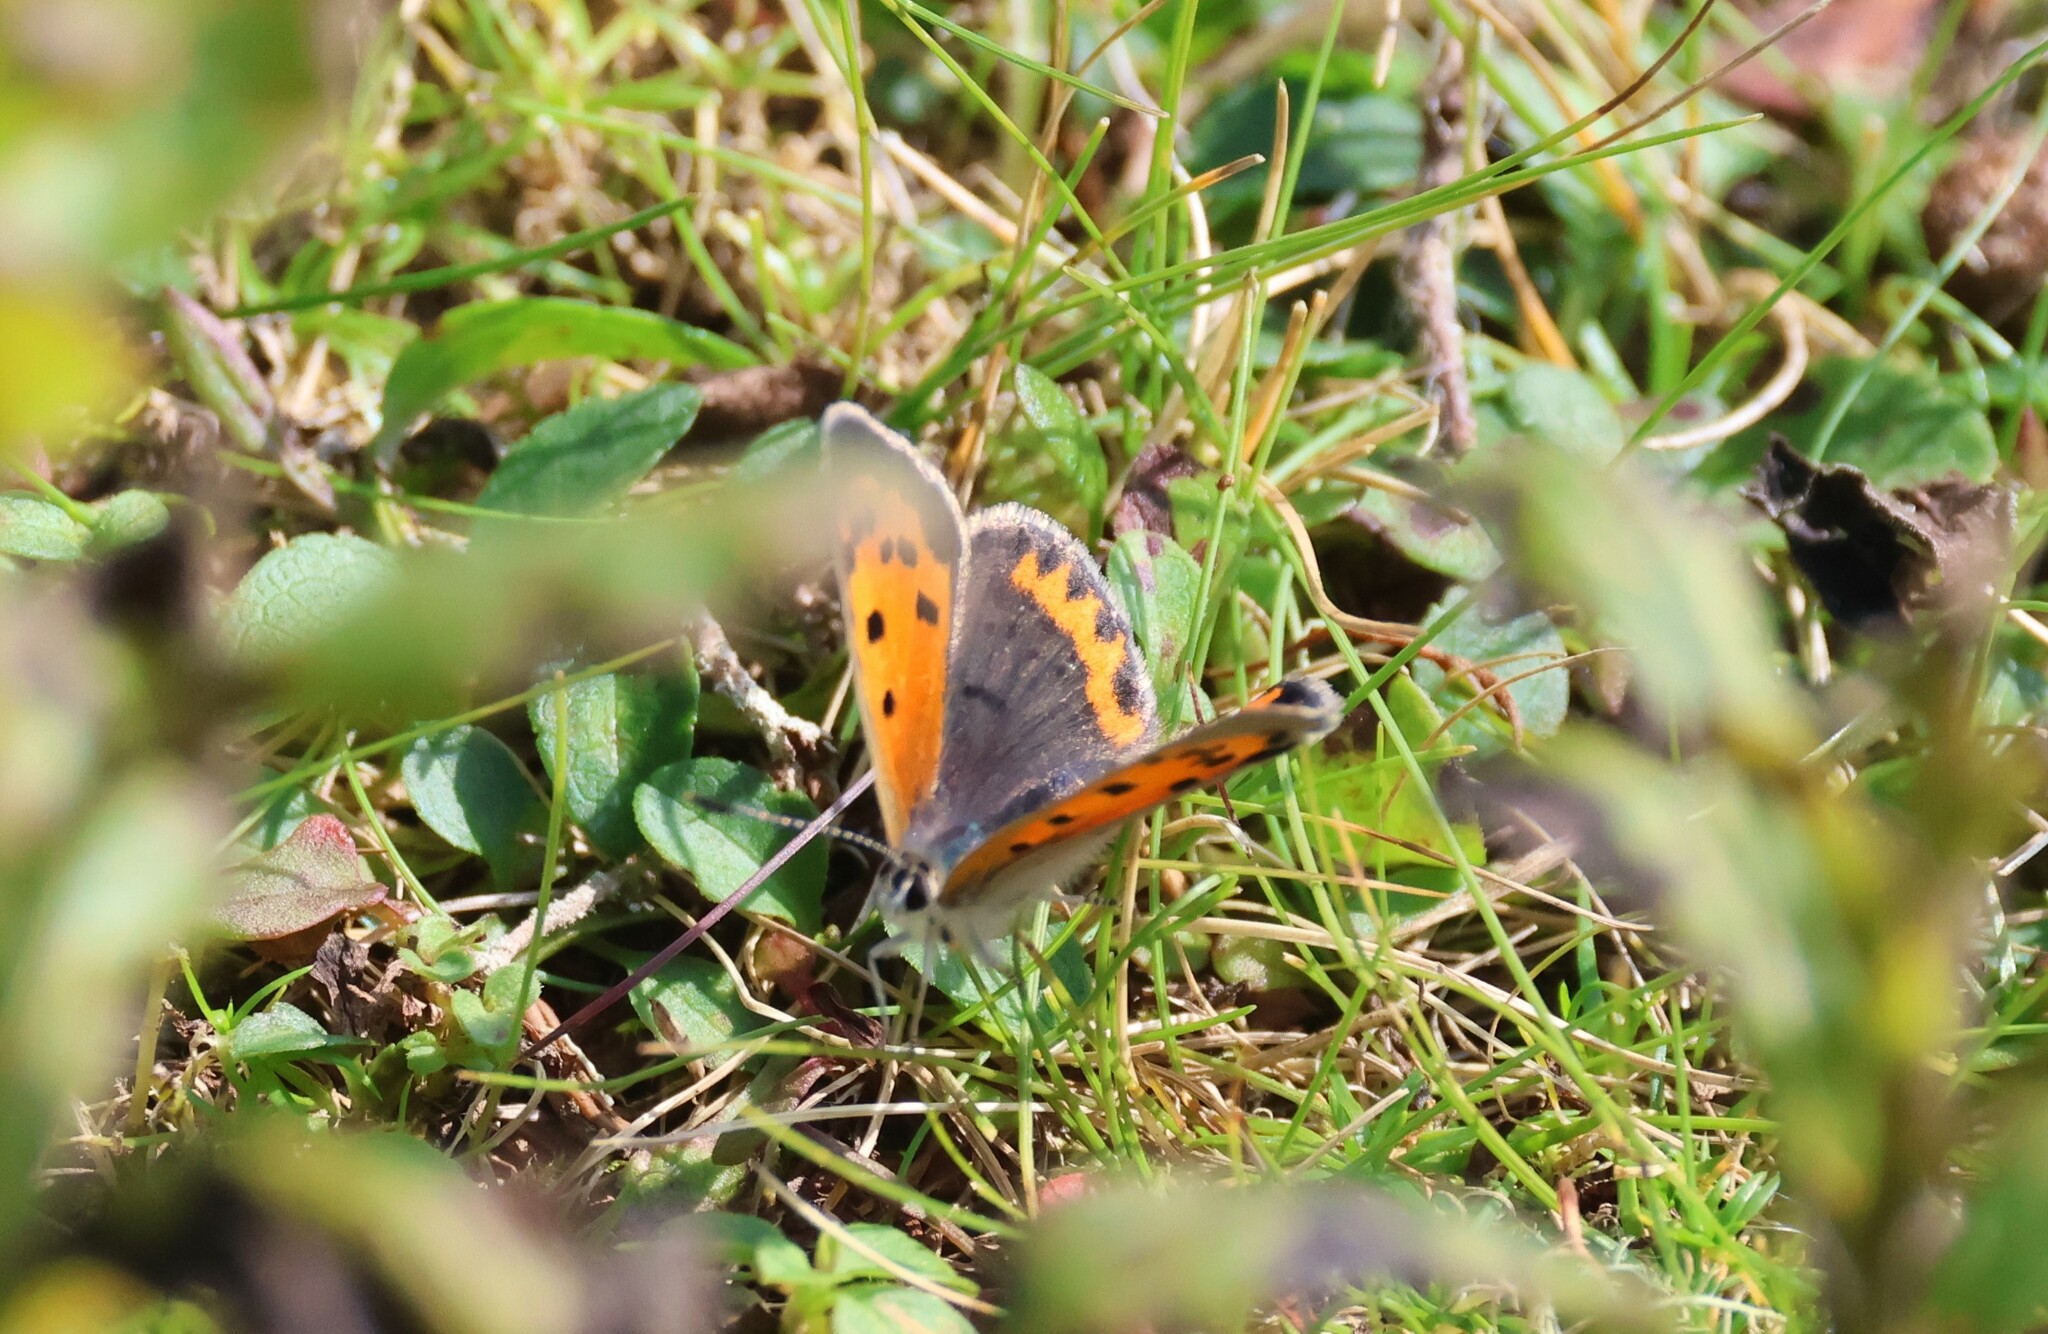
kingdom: Animalia
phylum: Arthropoda
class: Insecta
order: Lepidoptera
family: Lycaenidae
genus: Lycaena
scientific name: Lycaena hypophlaeas
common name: American copper
